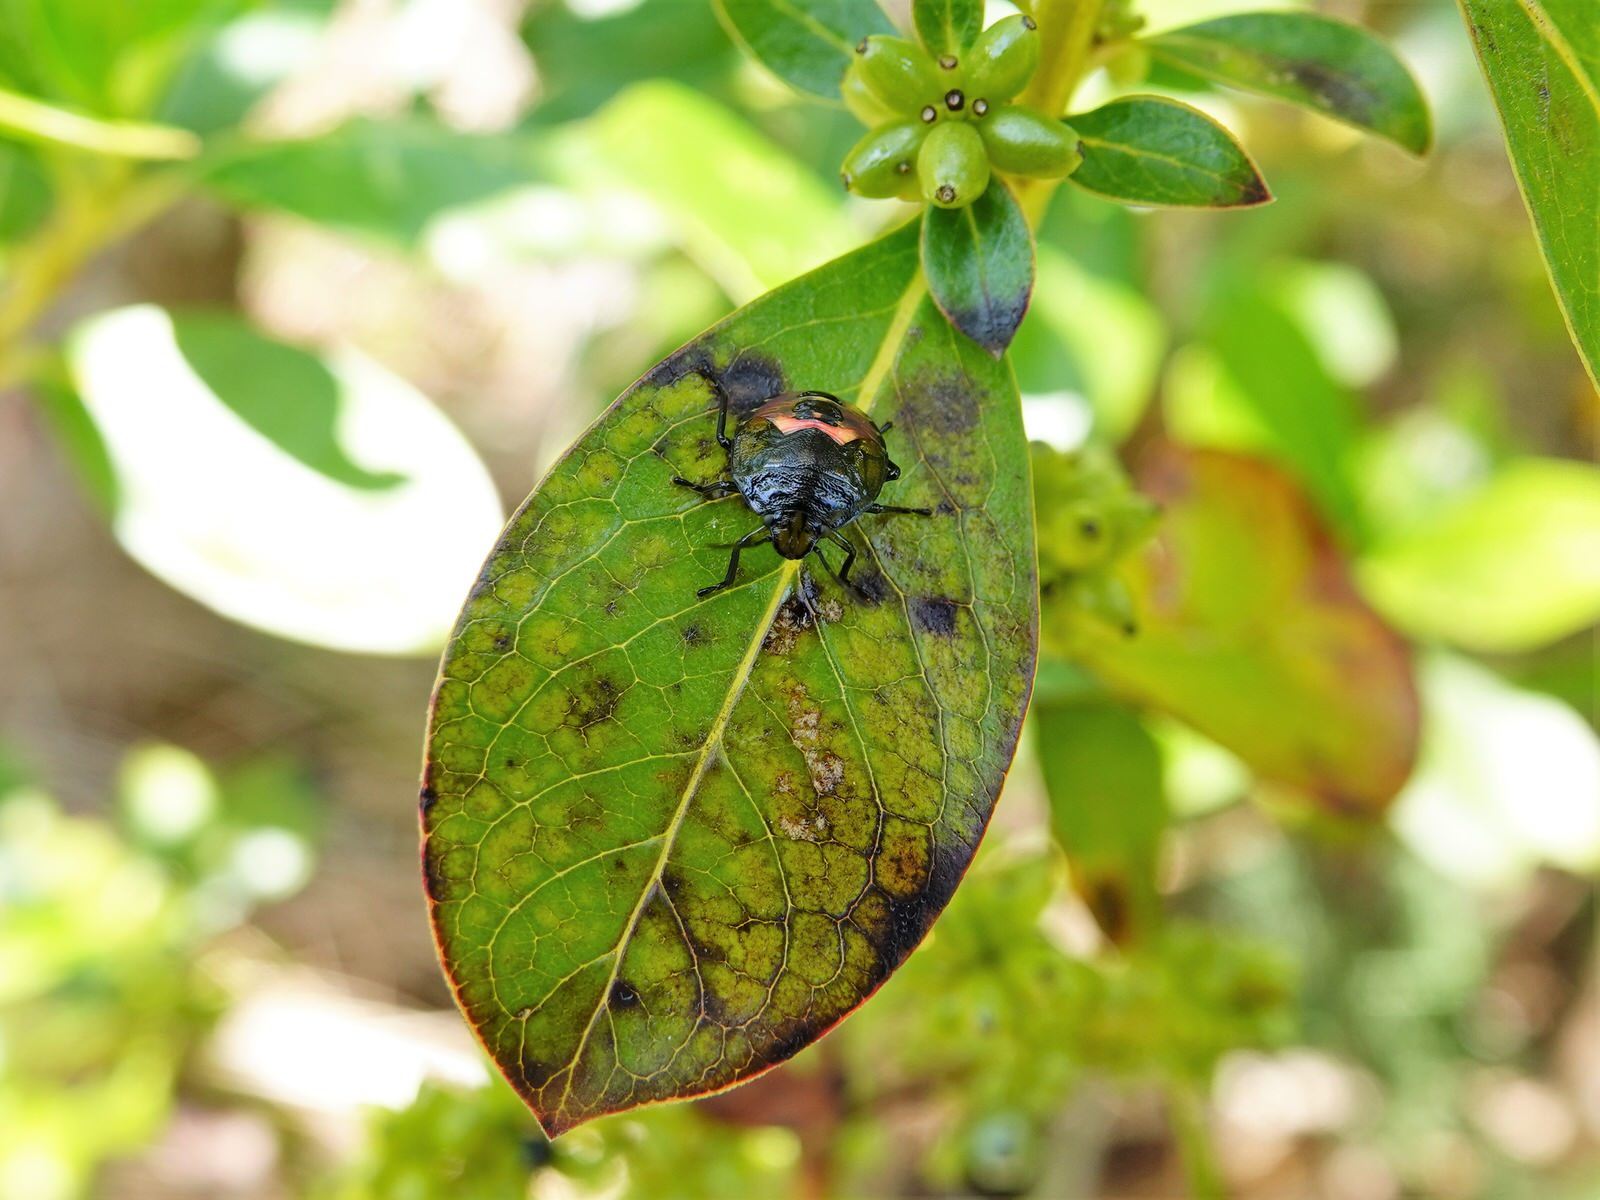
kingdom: Animalia
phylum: Arthropoda
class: Insecta
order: Hemiptera
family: Pentatomidae
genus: Glaucias
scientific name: Glaucias amyota
